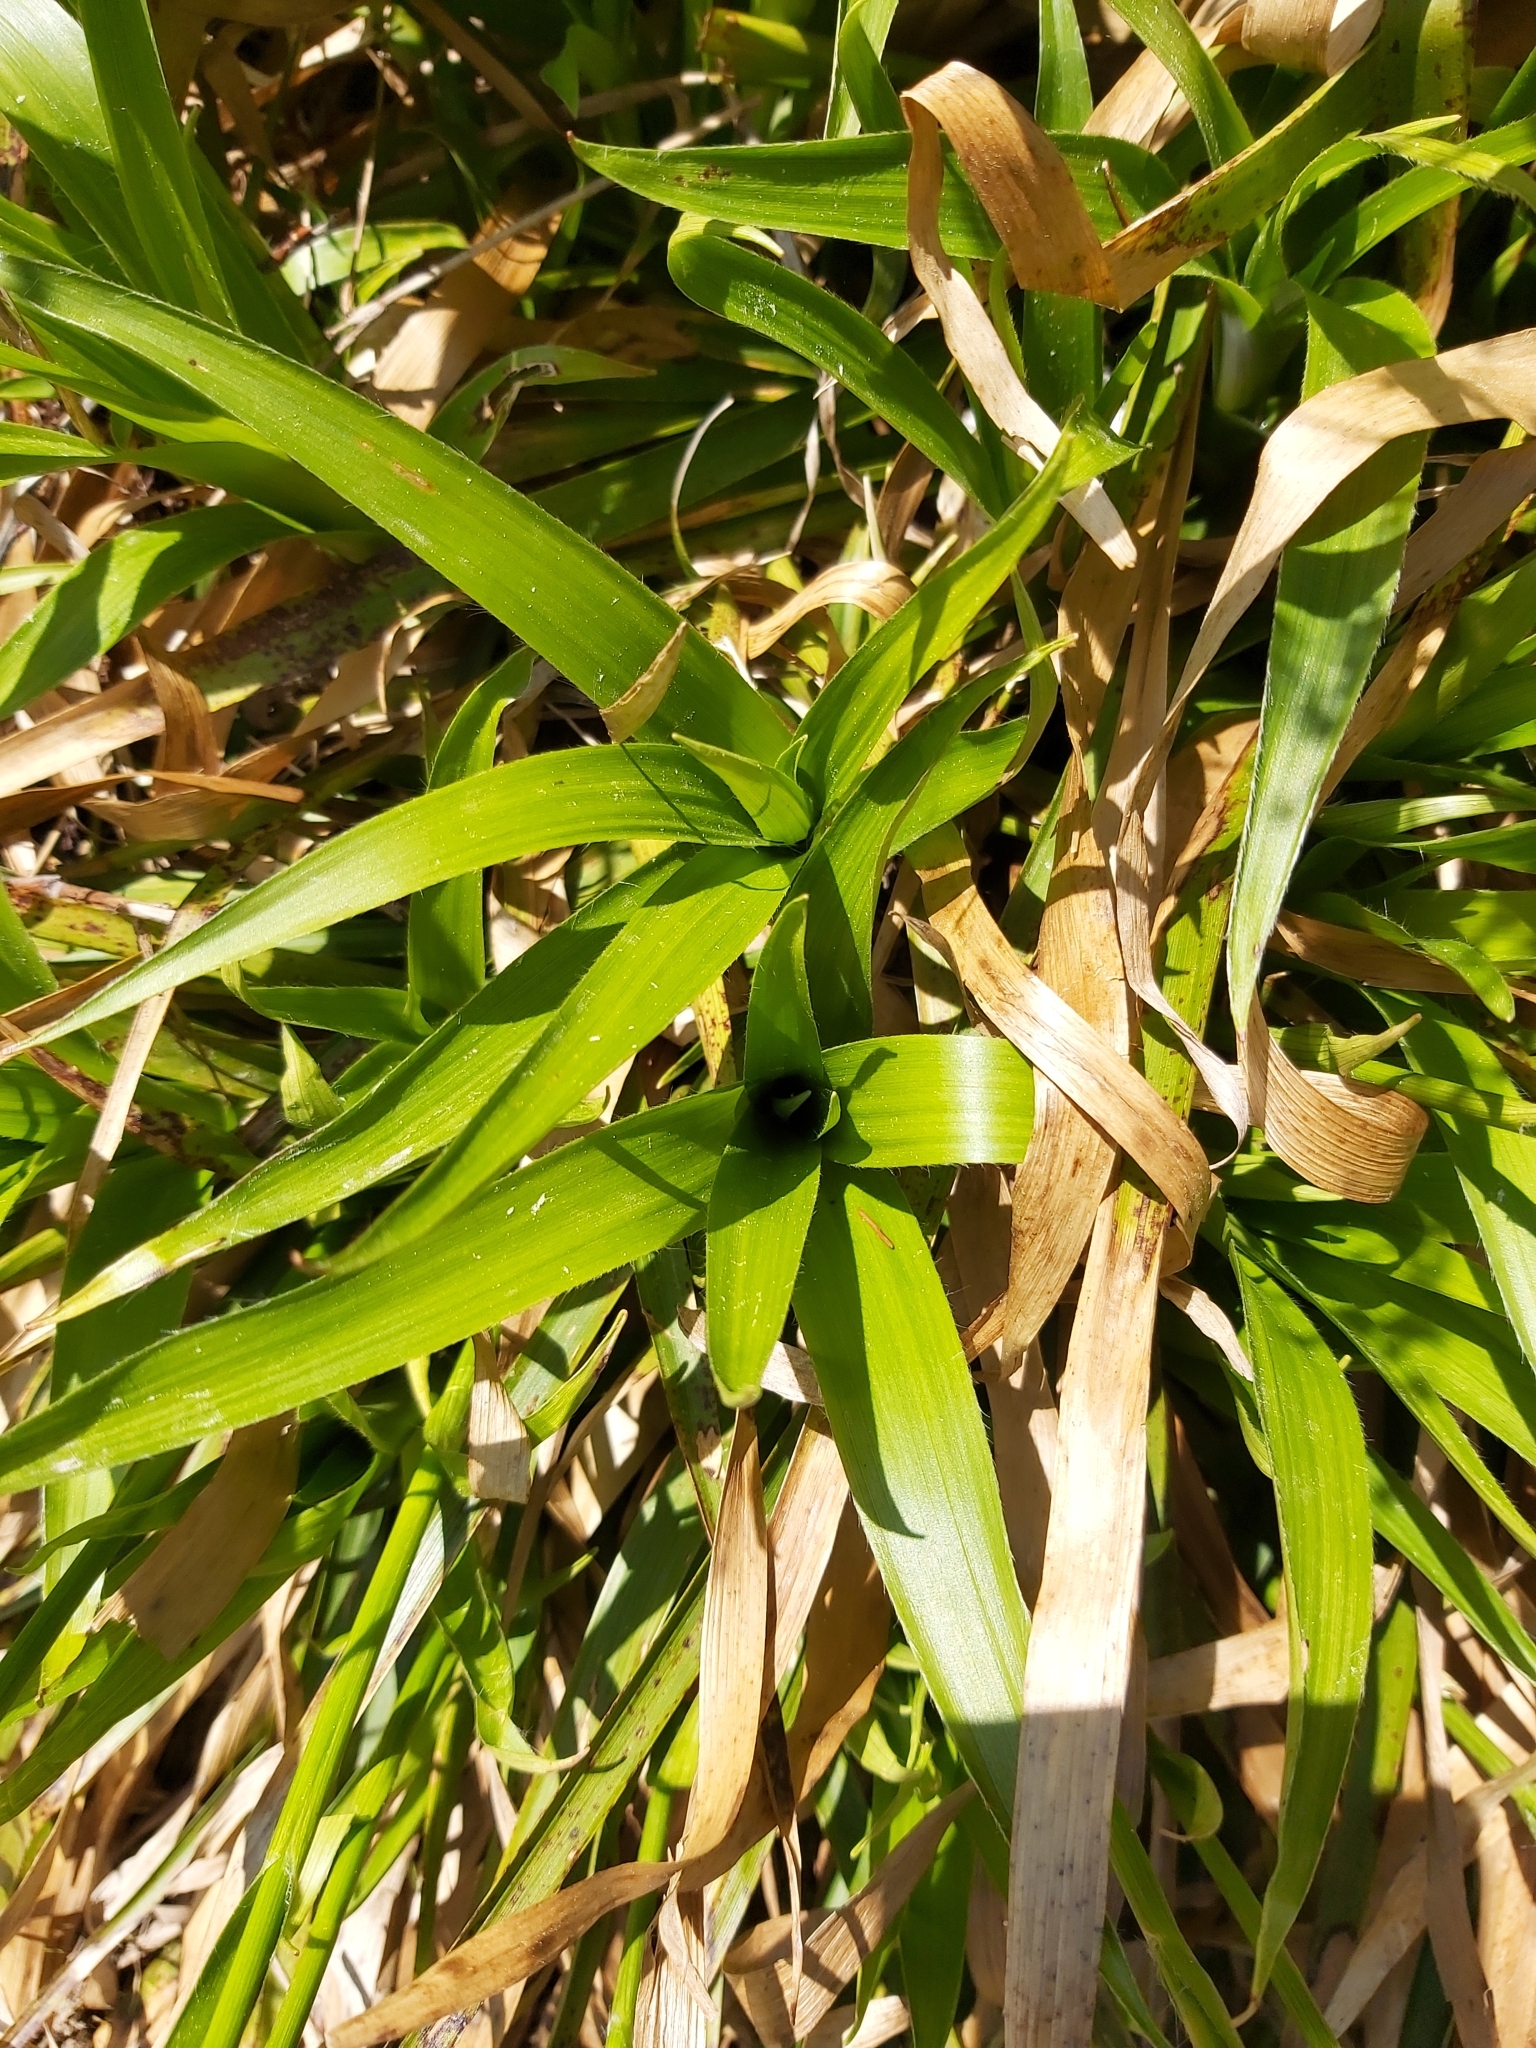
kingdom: Plantae
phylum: Tracheophyta
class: Liliopsida
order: Poales
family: Juncaceae
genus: Luzula
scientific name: Luzula sylvatica
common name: Great wood-rush
